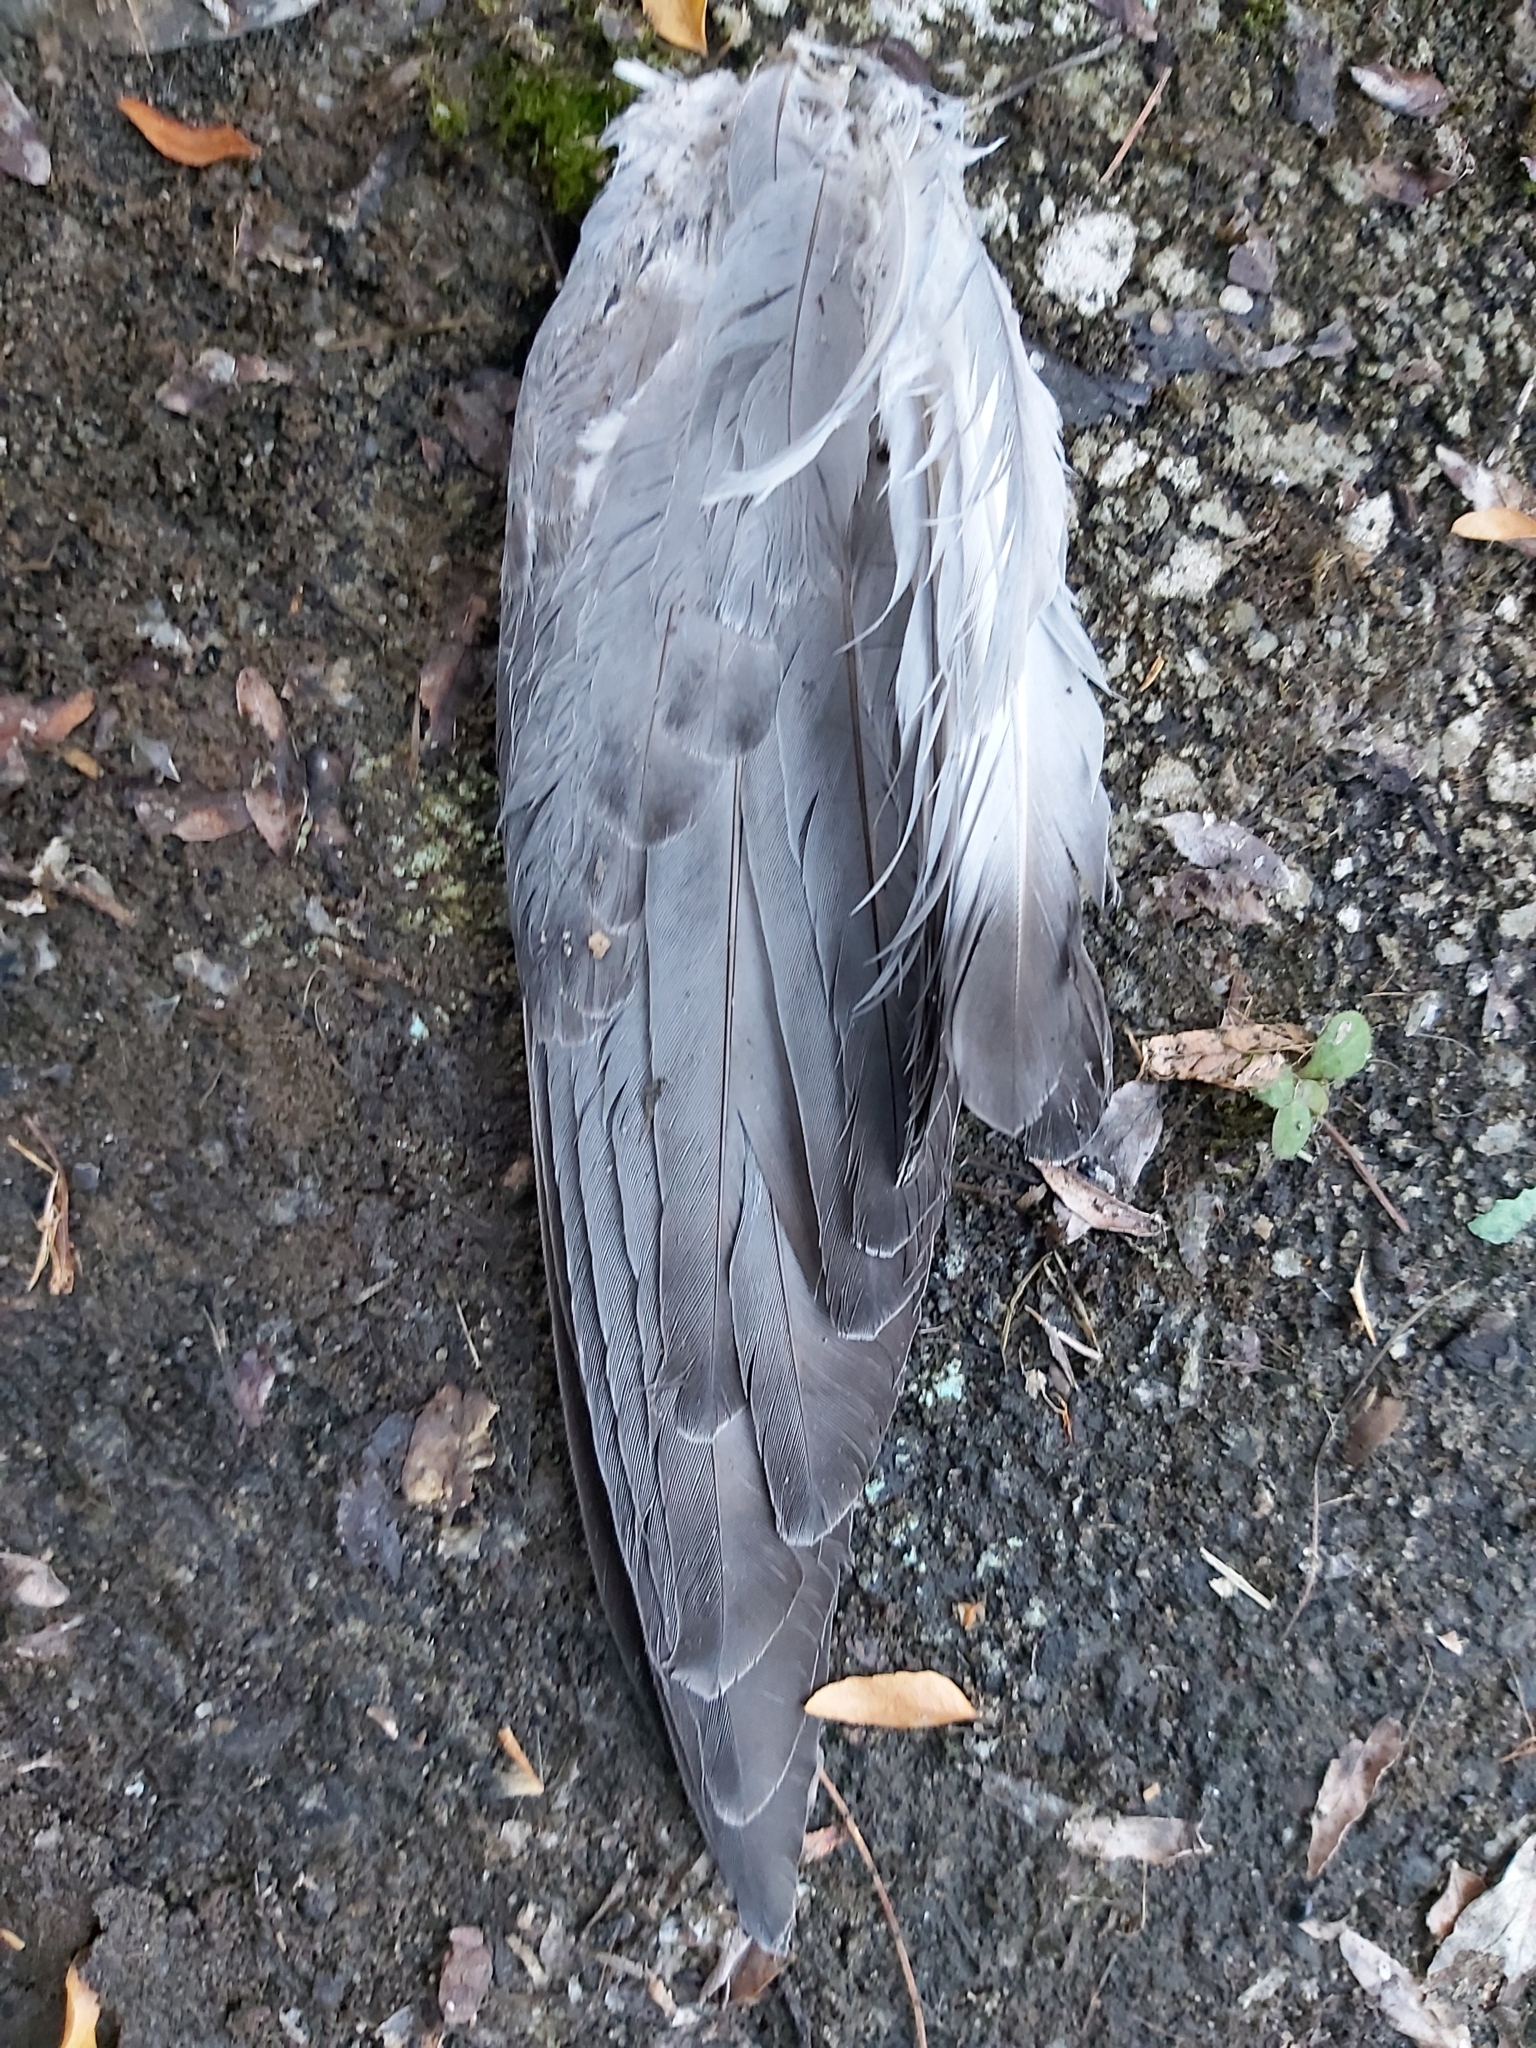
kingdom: Animalia
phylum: Chordata
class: Aves
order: Columbiformes
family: Columbidae
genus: Columba
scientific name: Columba livia
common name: Rock pigeon
